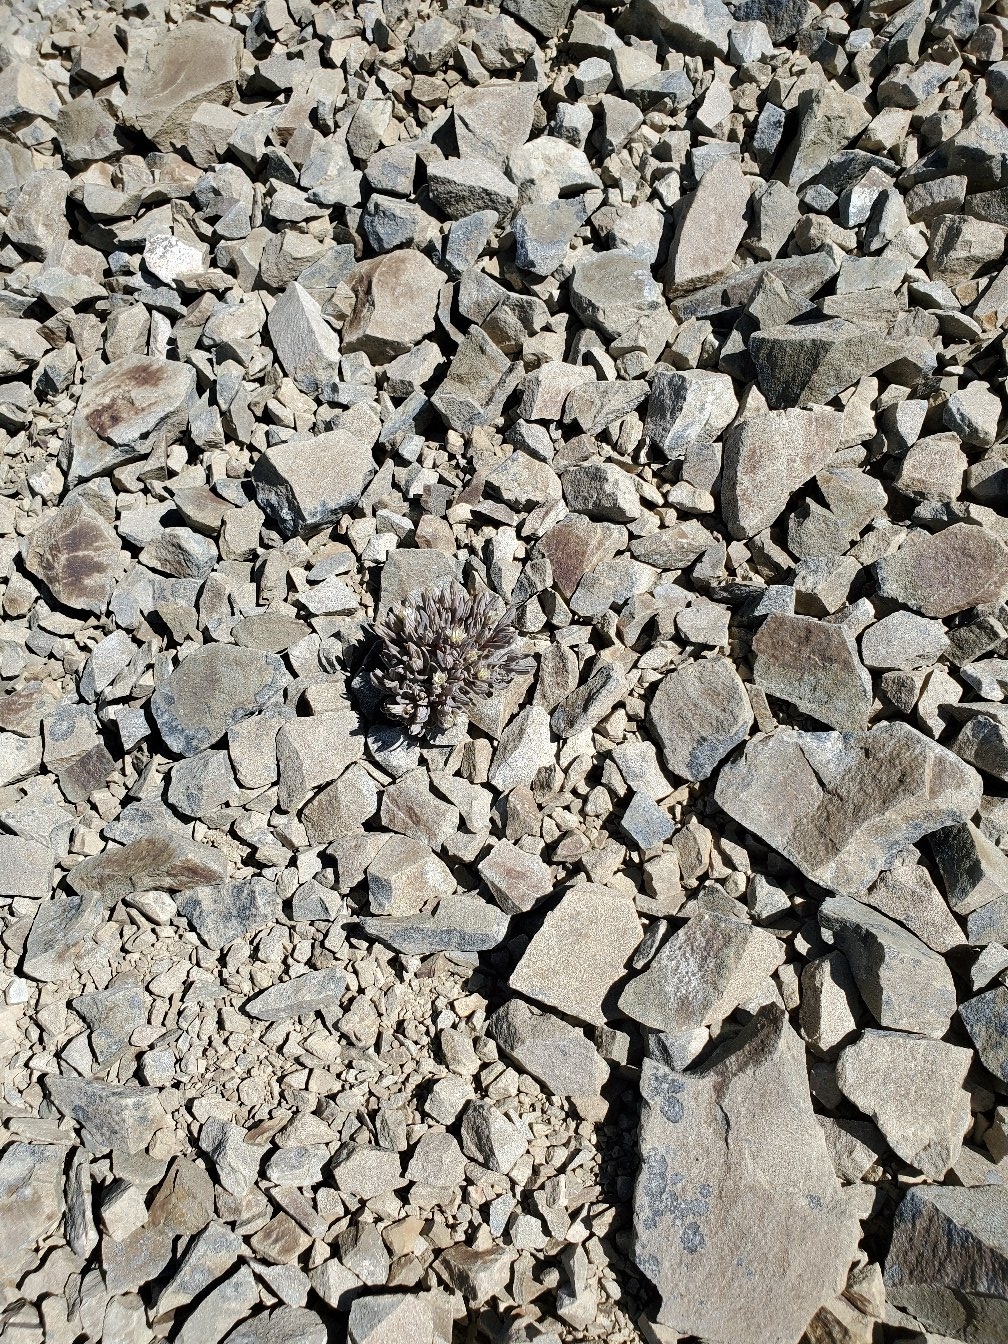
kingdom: Plantae
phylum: Tracheophyta
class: Magnoliopsida
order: Caryophyllales
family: Caryophyllaceae
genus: Stellaria
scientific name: Stellaria roughii
